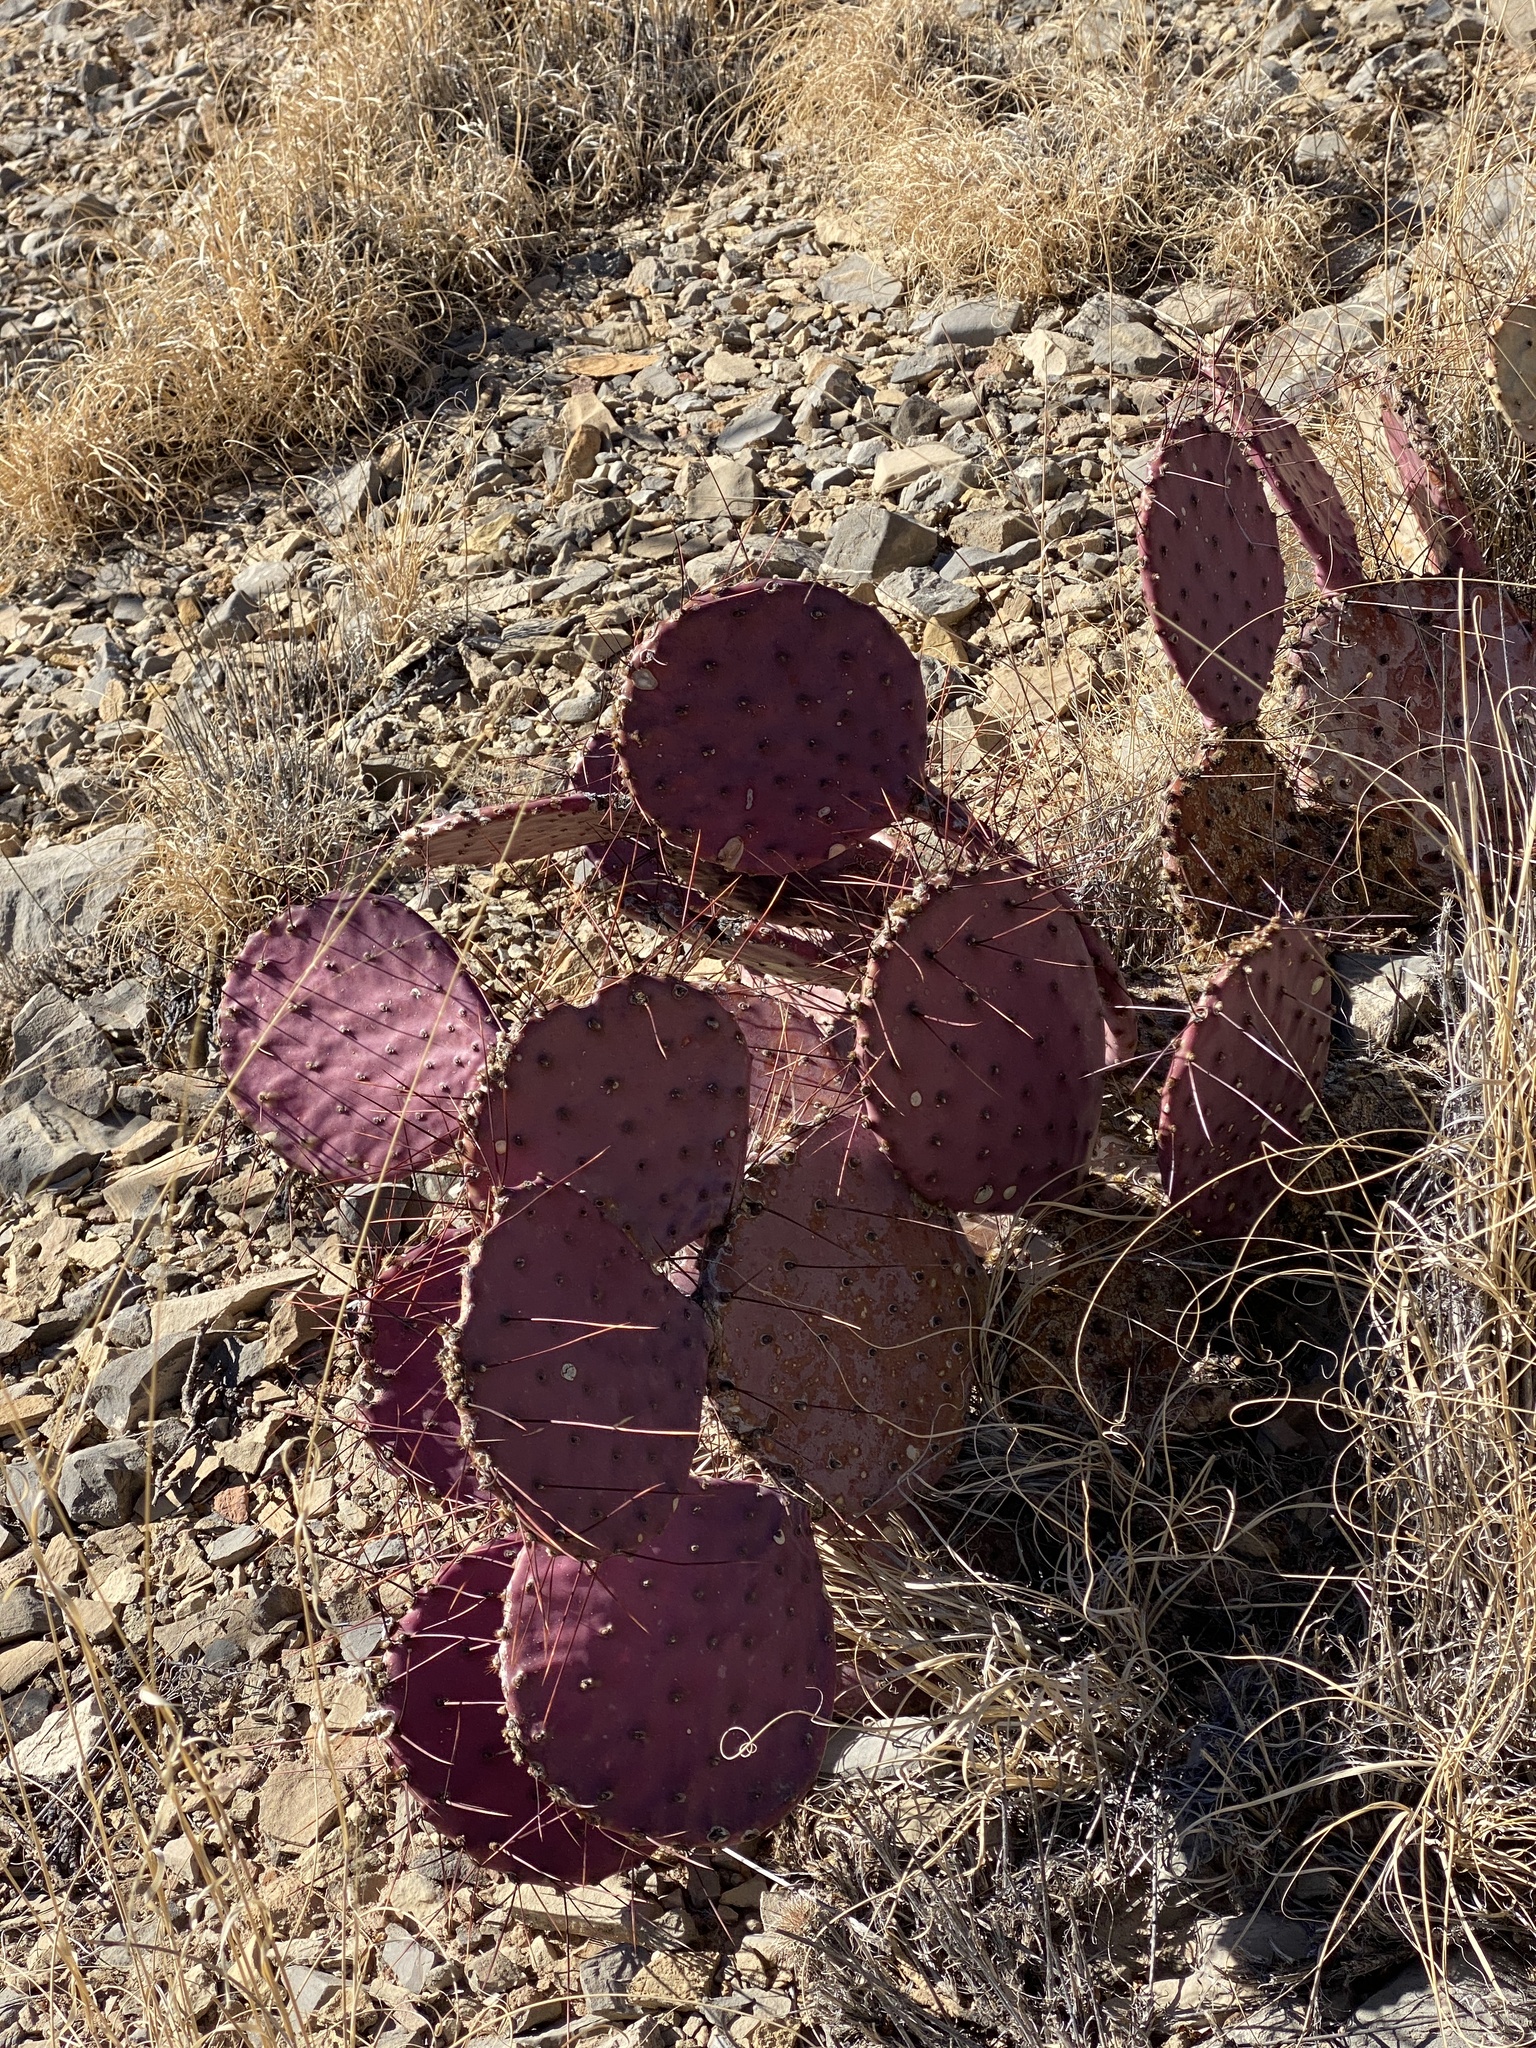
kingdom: Plantae
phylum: Tracheophyta
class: Magnoliopsida
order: Caryophyllales
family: Cactaceae
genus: Opuntia
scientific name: Opuntia macrocentra
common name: Purple prickly-pear
